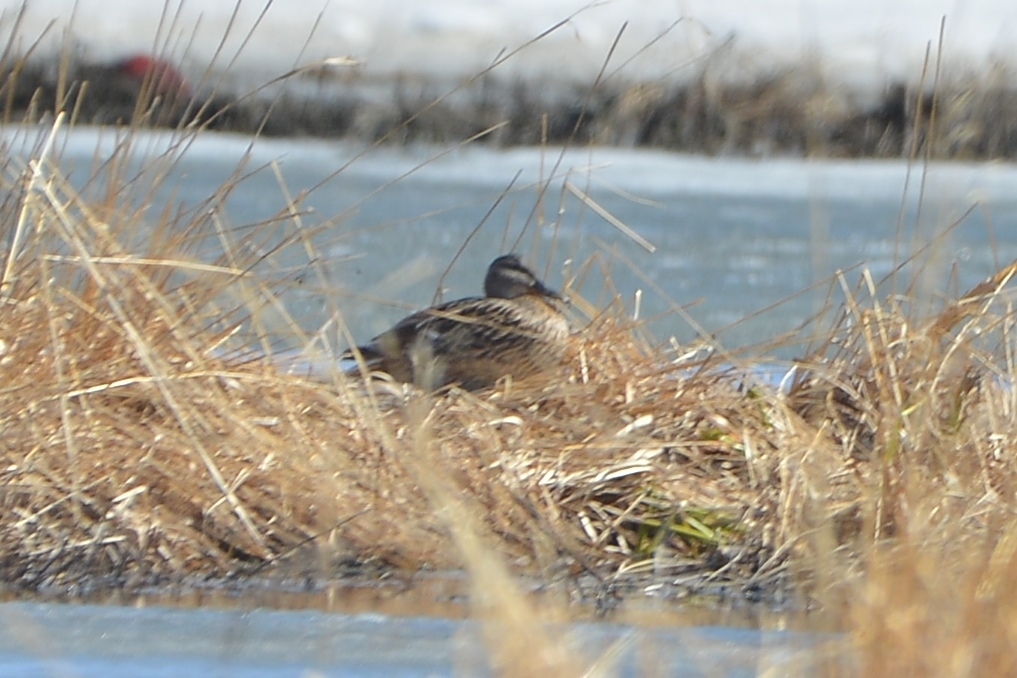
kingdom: Animalia
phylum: Chordata
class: Aves
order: Anseriformes
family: Anatidae
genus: Anas
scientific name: Anas platyrhynchos
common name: Mallard
